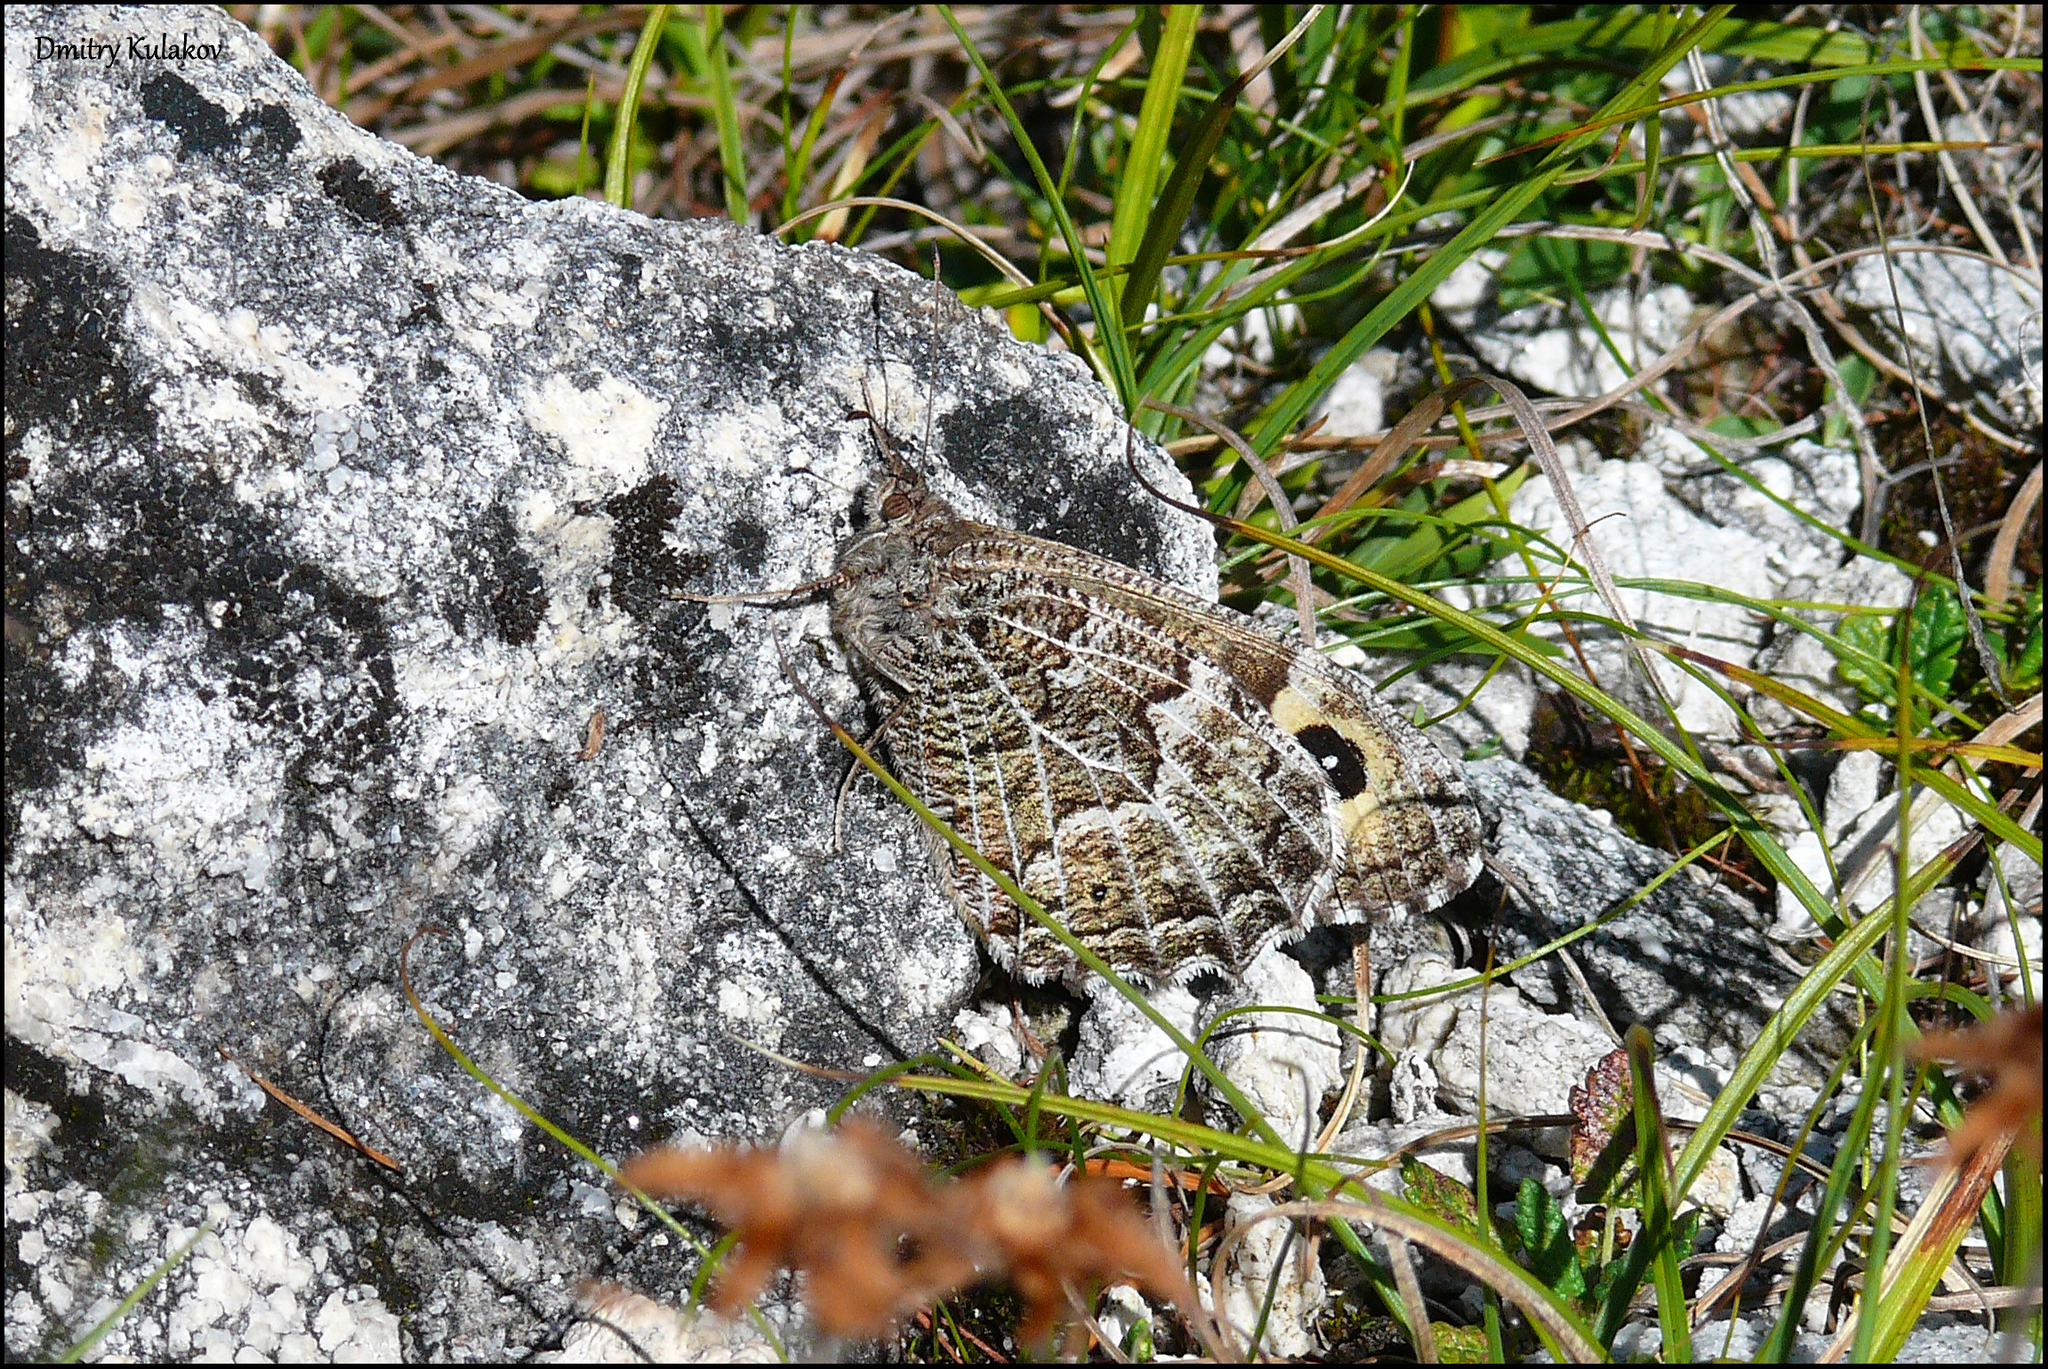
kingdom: Animalia
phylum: Arthropoda
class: Insecta
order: Lepidoptera
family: Nymphalidae
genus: Hipparchia
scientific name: Hipparchia autonoe
